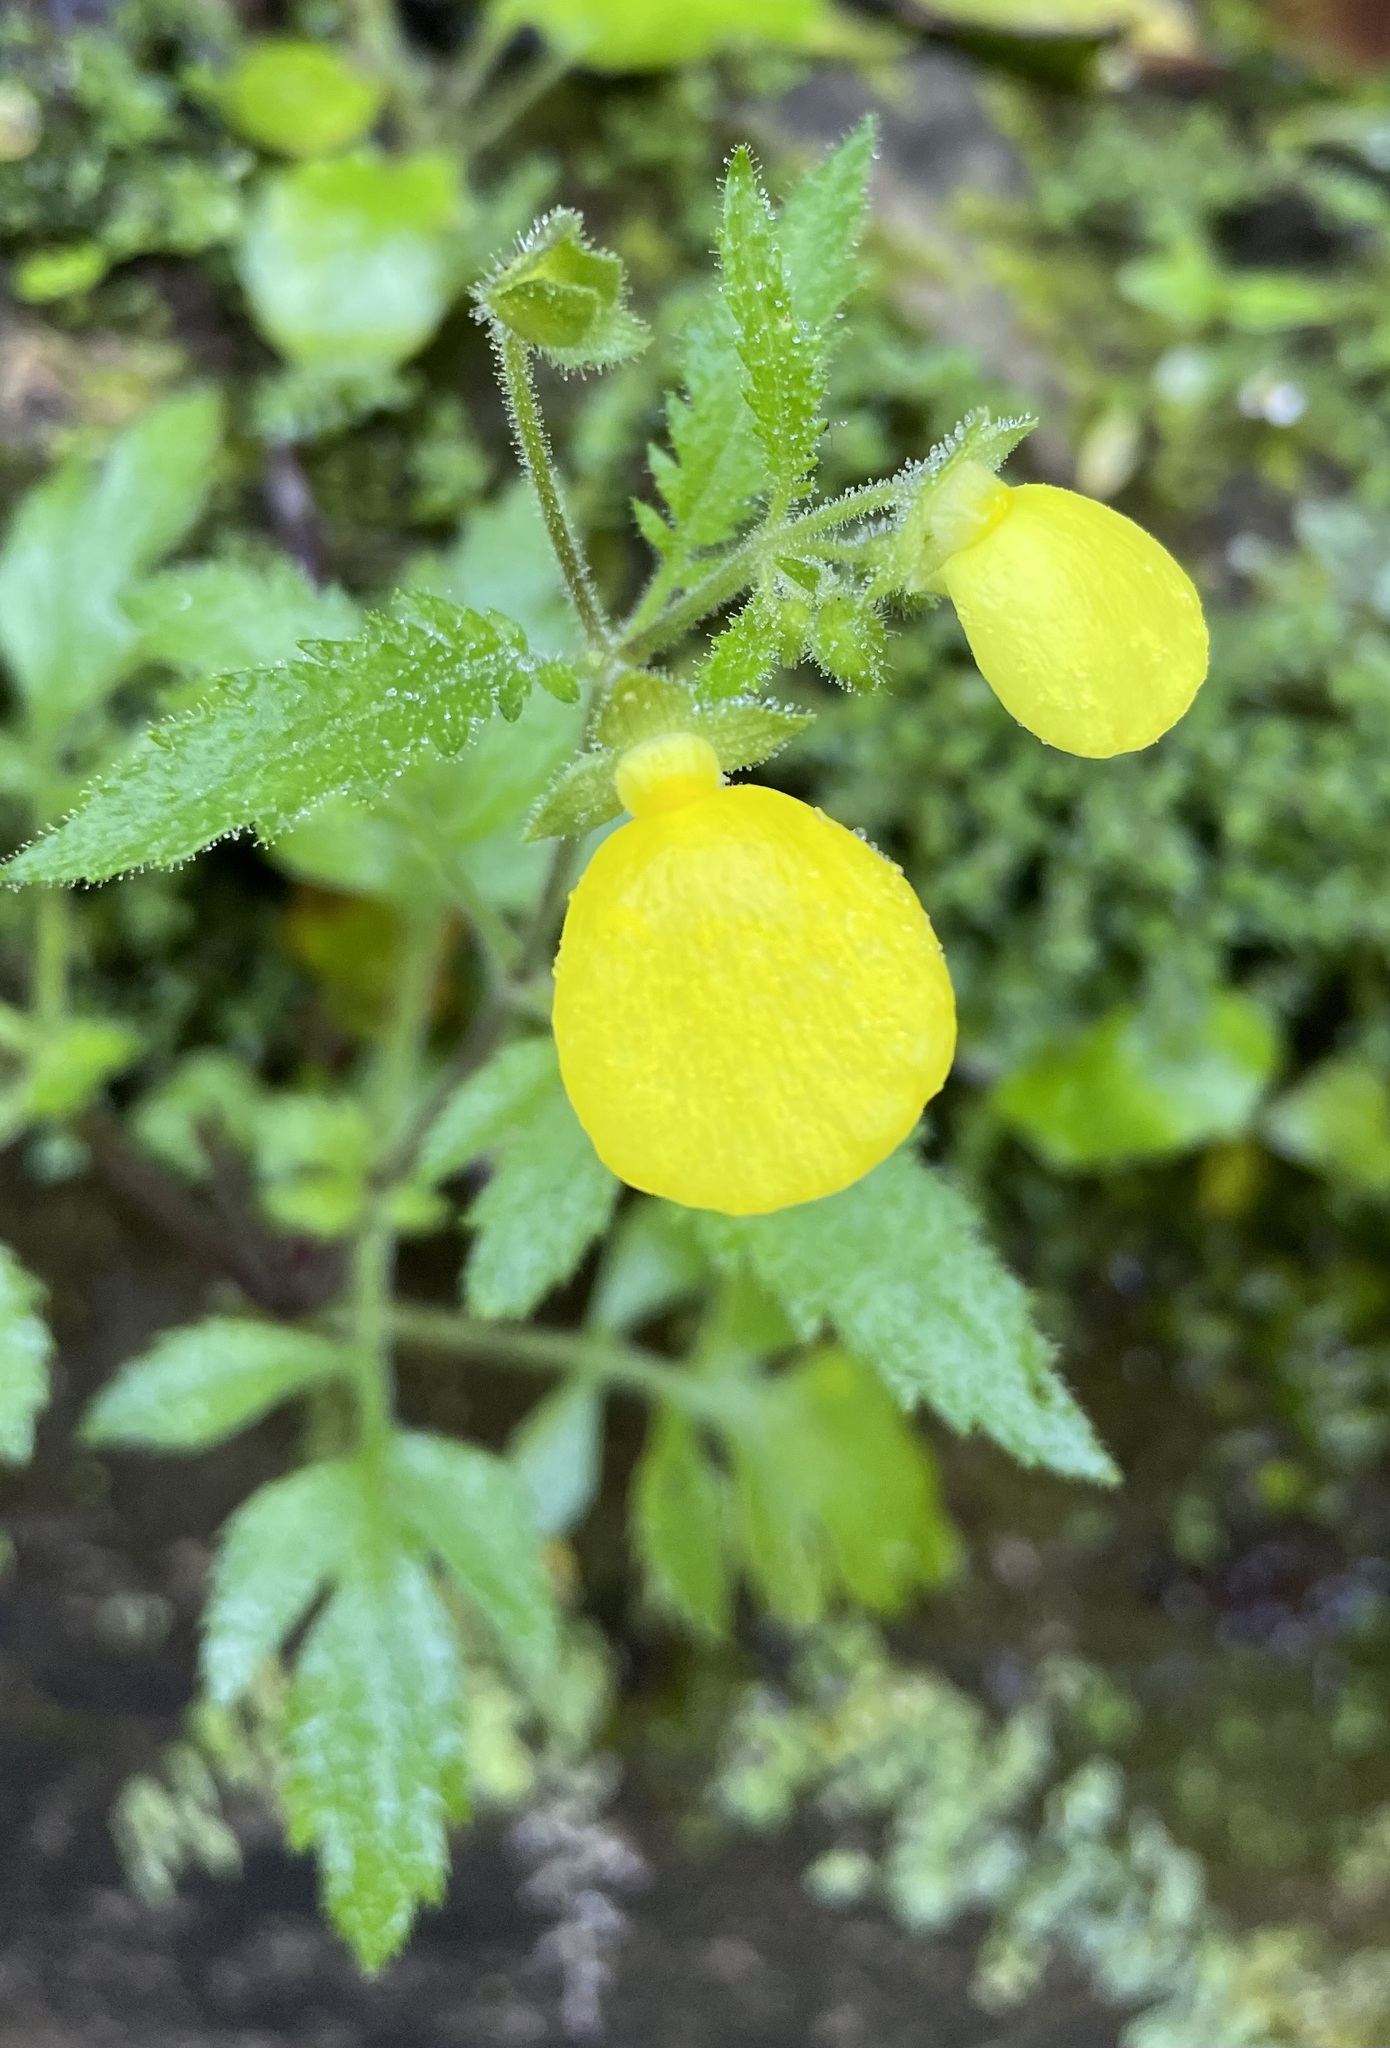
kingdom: Plantae
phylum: Tracheophyta
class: Magnoliopsida
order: Lamiales
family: Calceolariaceae
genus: Calceolaria
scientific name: Calceolaria tripartita
